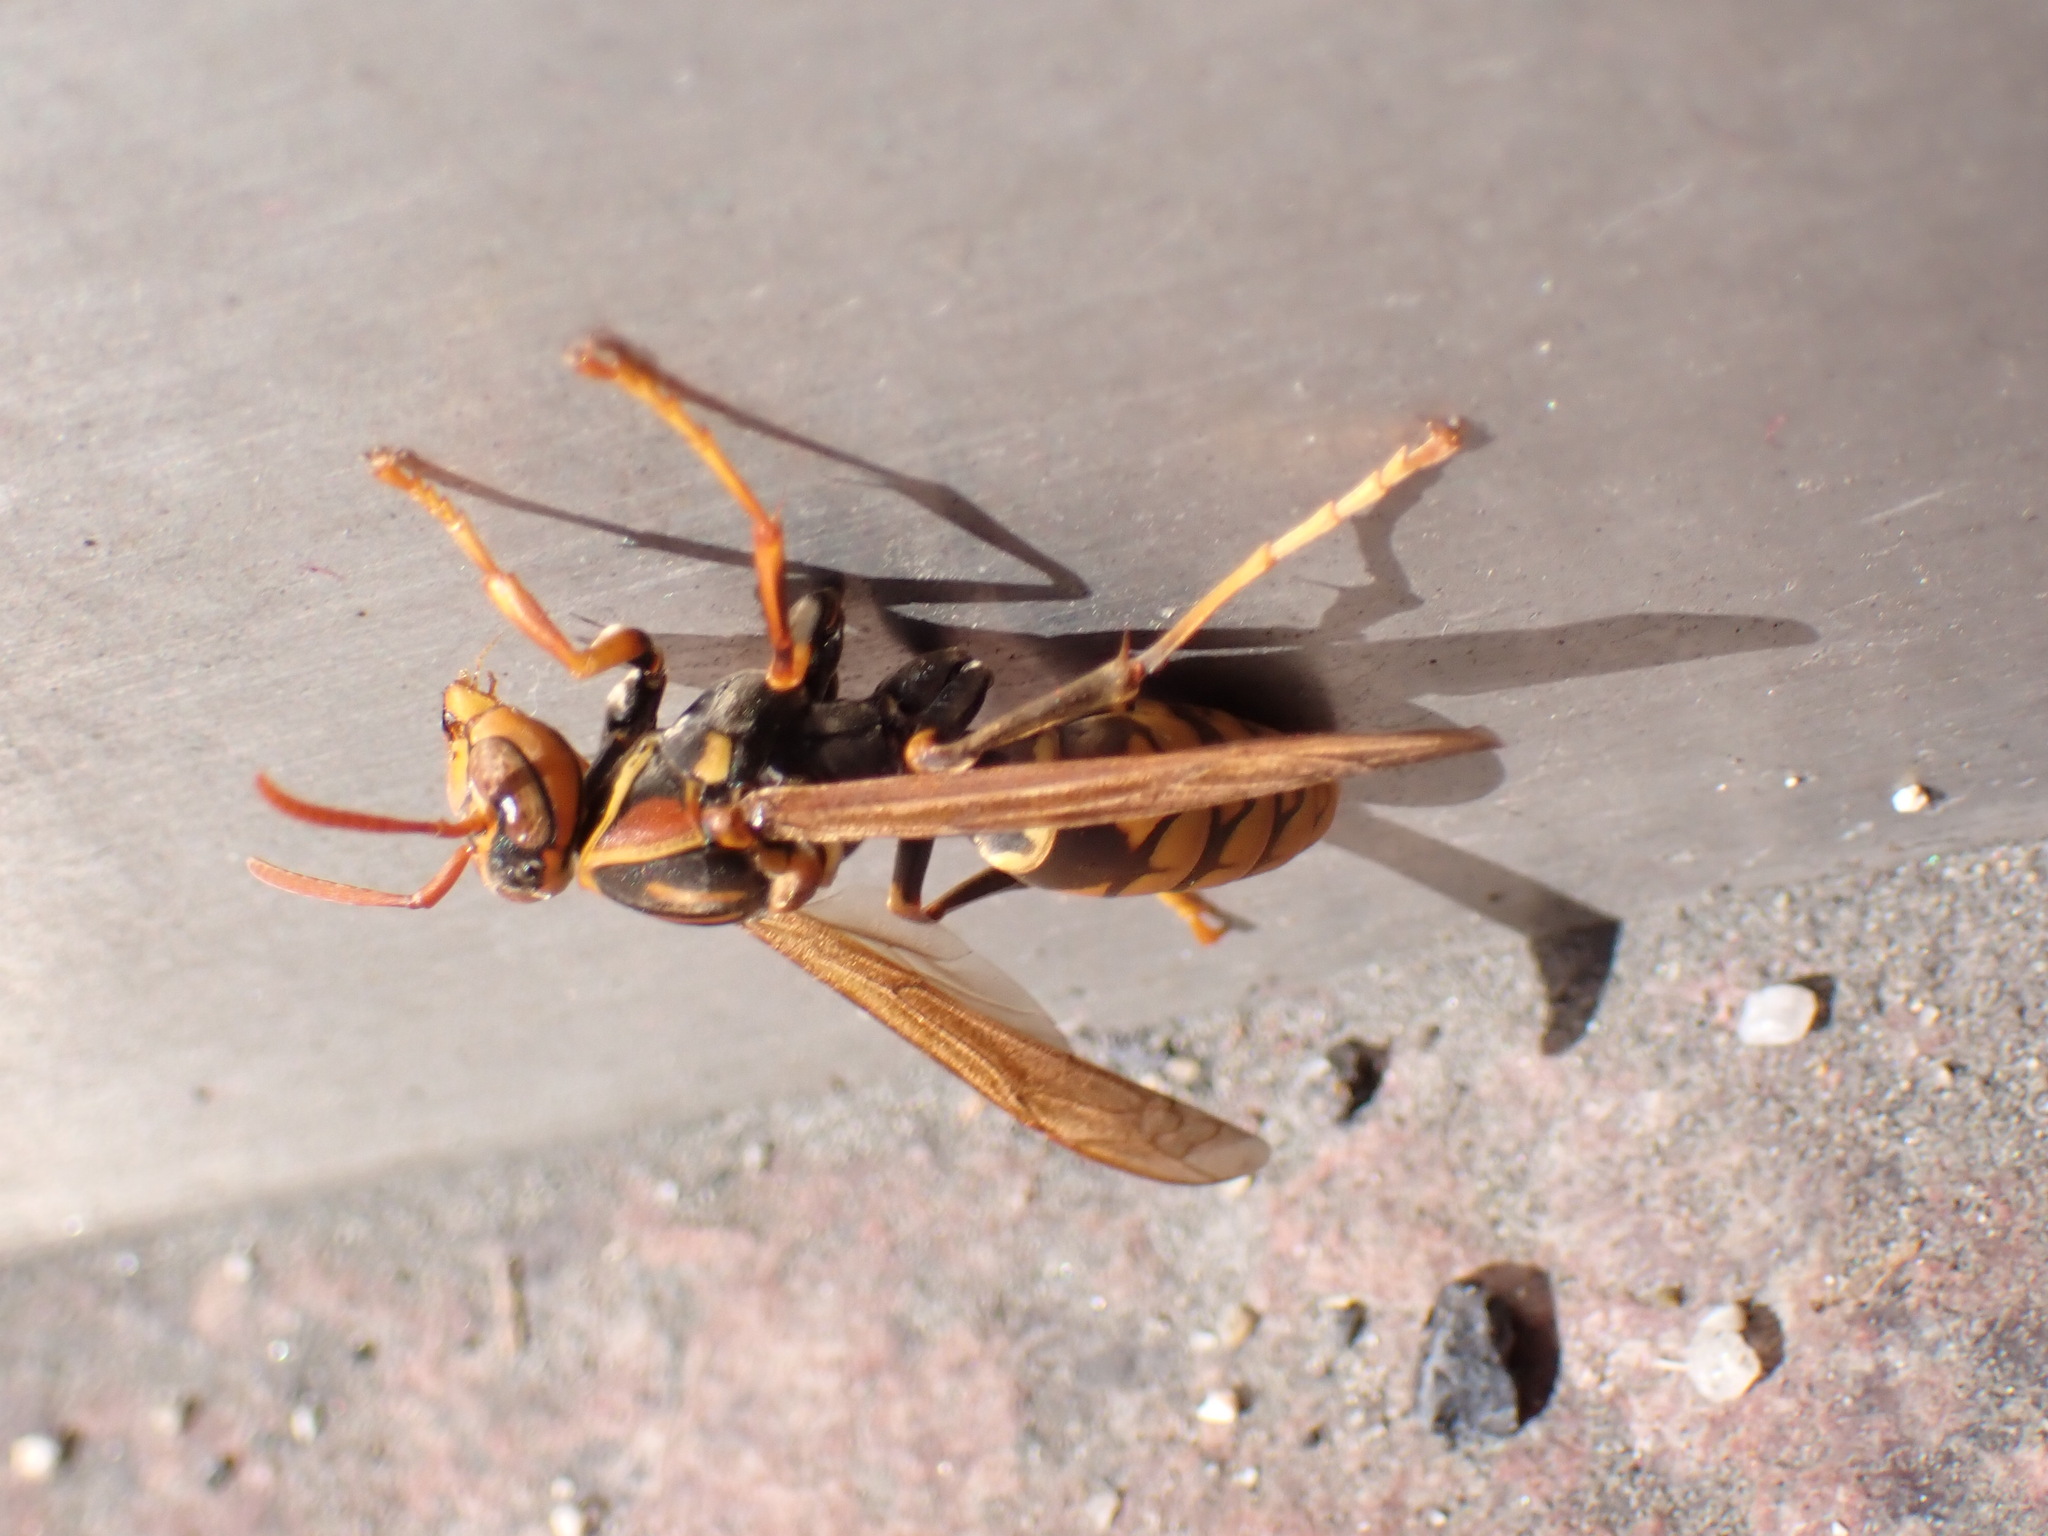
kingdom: Animalia
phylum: Arthropoda
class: Insecta
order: Hymenoptera
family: Eumenidae
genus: Polistes
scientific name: Polistes jokahamae
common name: Paper wasp
